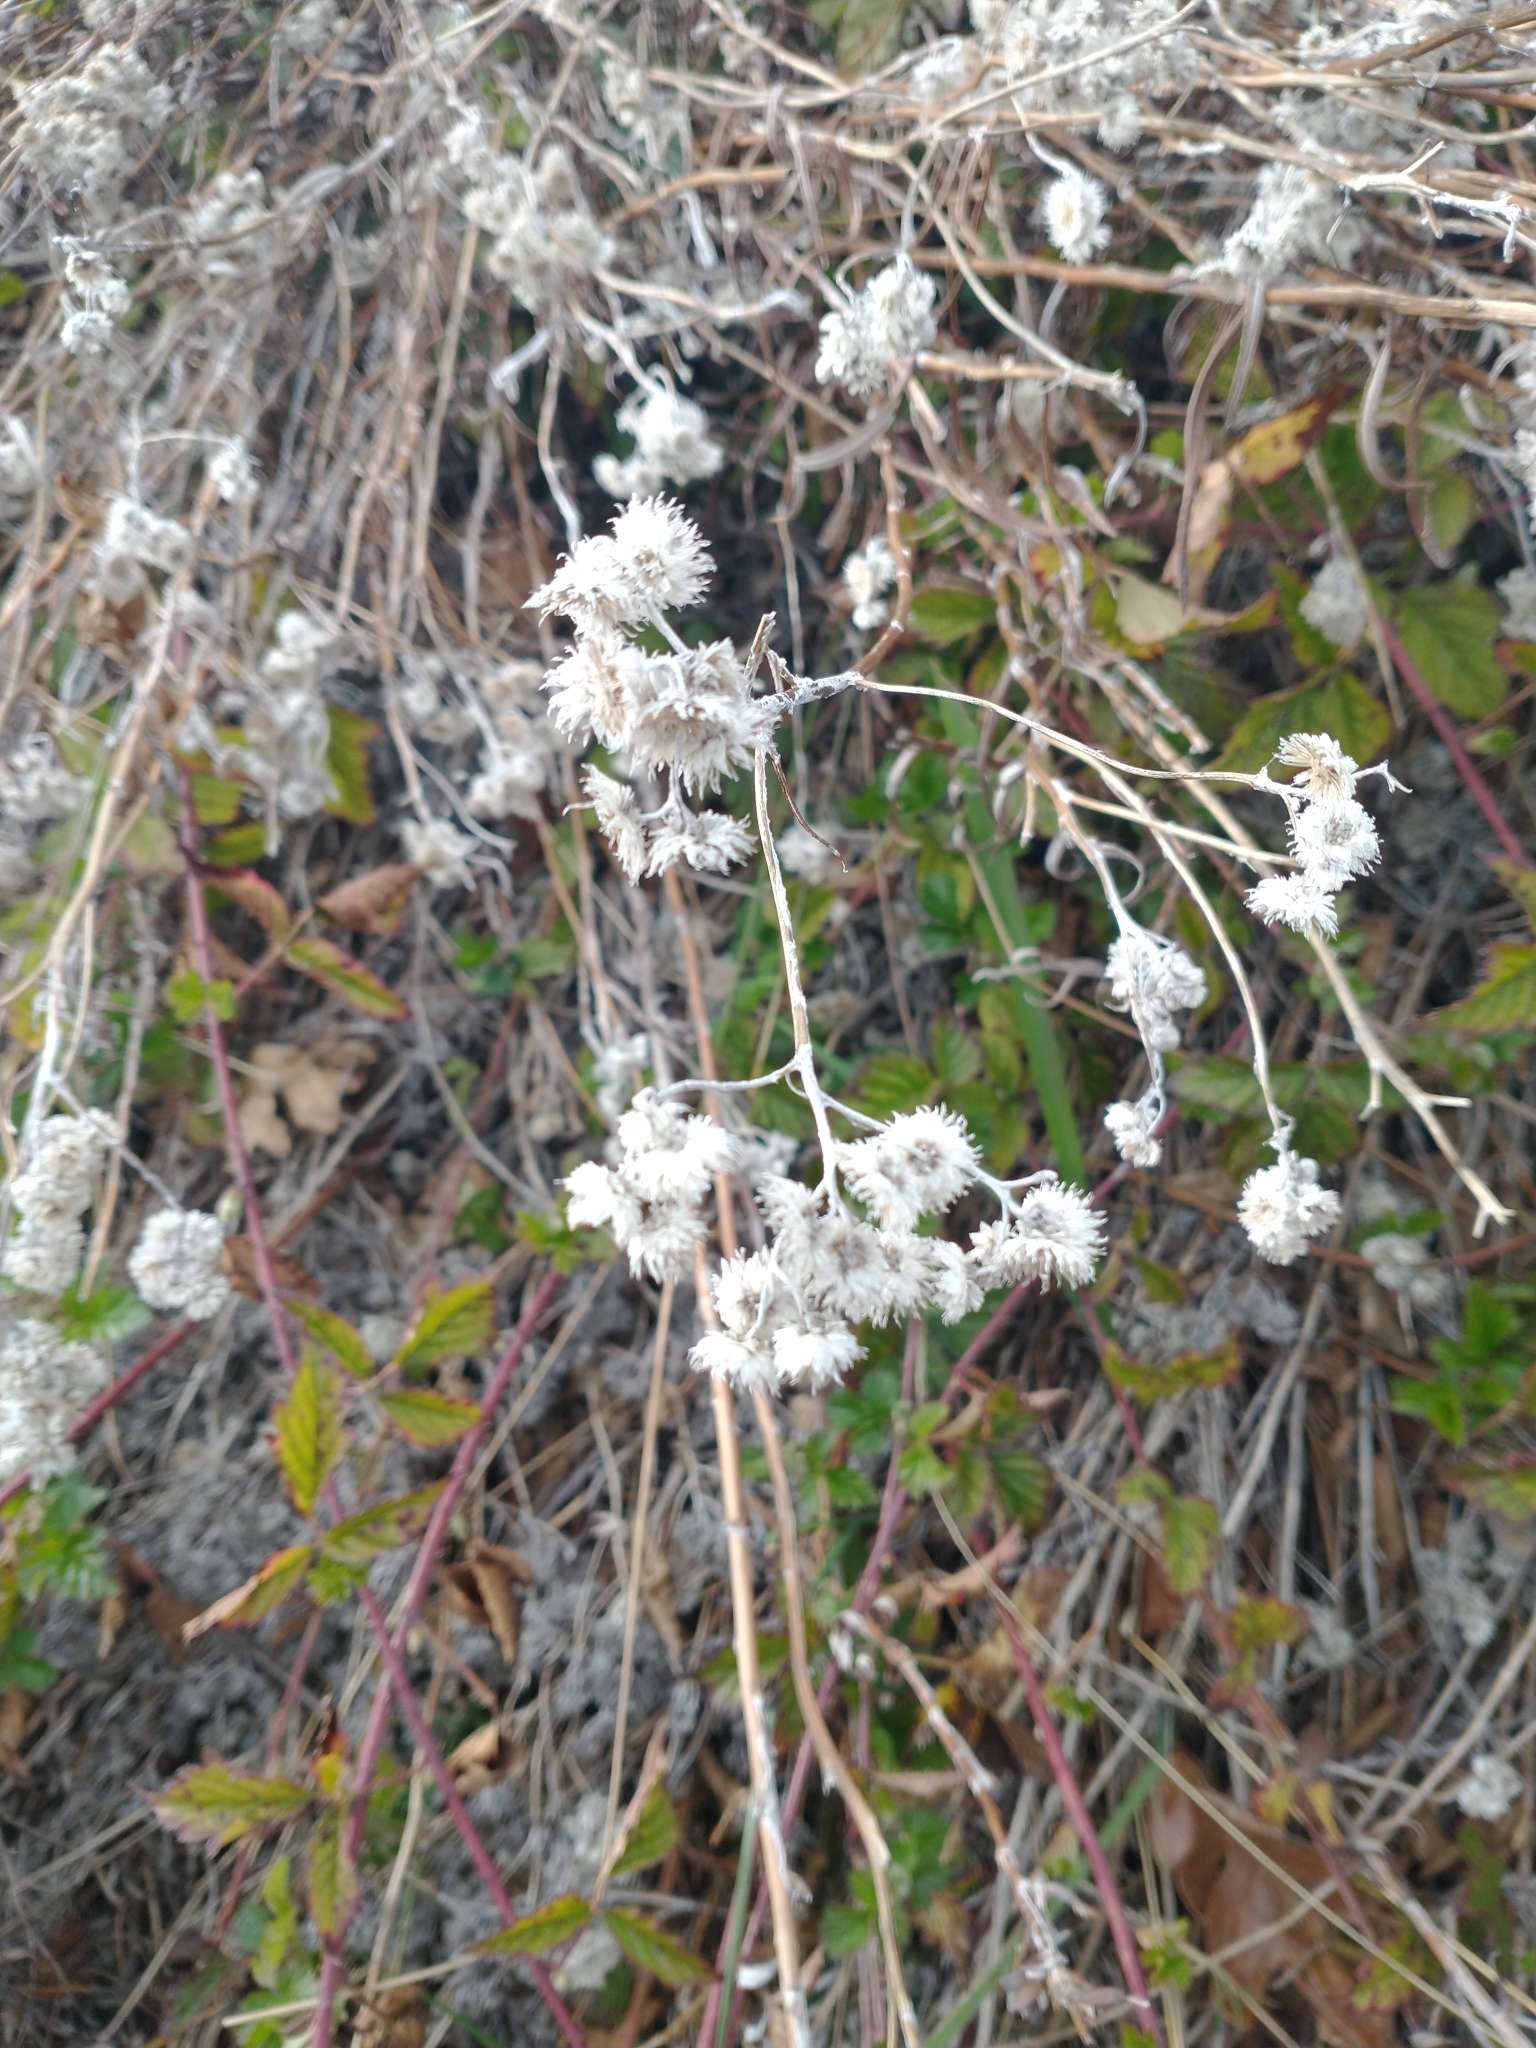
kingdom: Plantae
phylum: Tracheophyta
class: Magnoliopsida
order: Asterales
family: Asteraceae
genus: Anaphalis
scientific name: Anaphalis margaritacea
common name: Pearly everlasting
